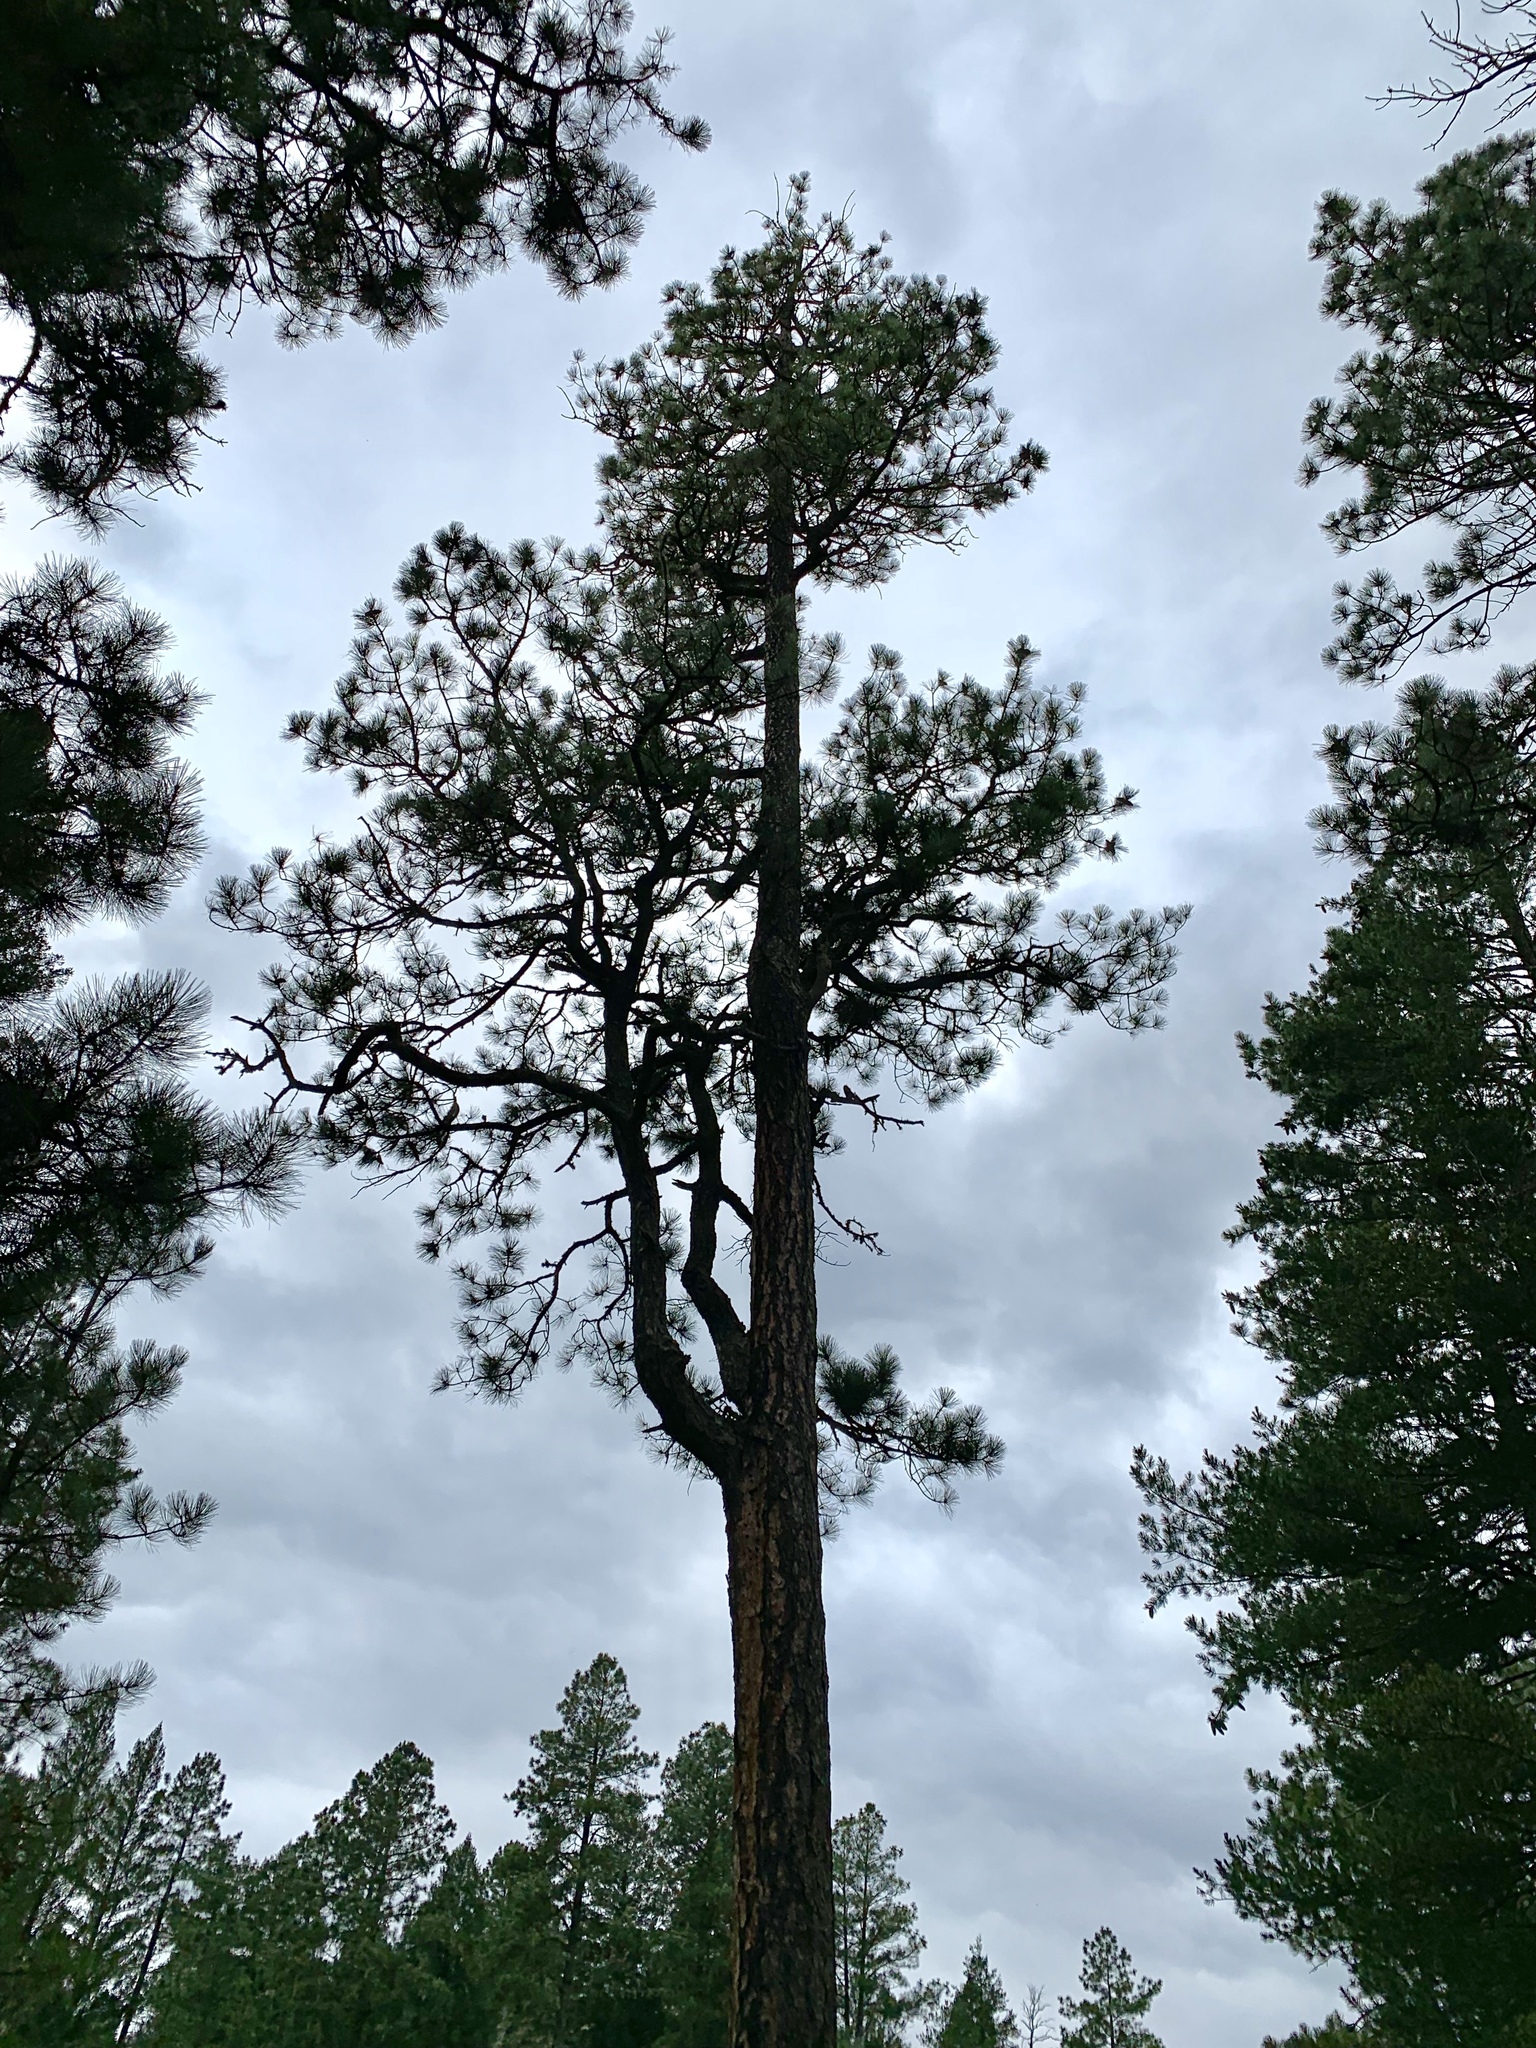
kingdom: Plantae
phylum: Tracheophyta
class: Pinopsida
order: Pinales
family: Pinaceae
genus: Pinus
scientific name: Pinus ponderosa
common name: Western yellow-pine
